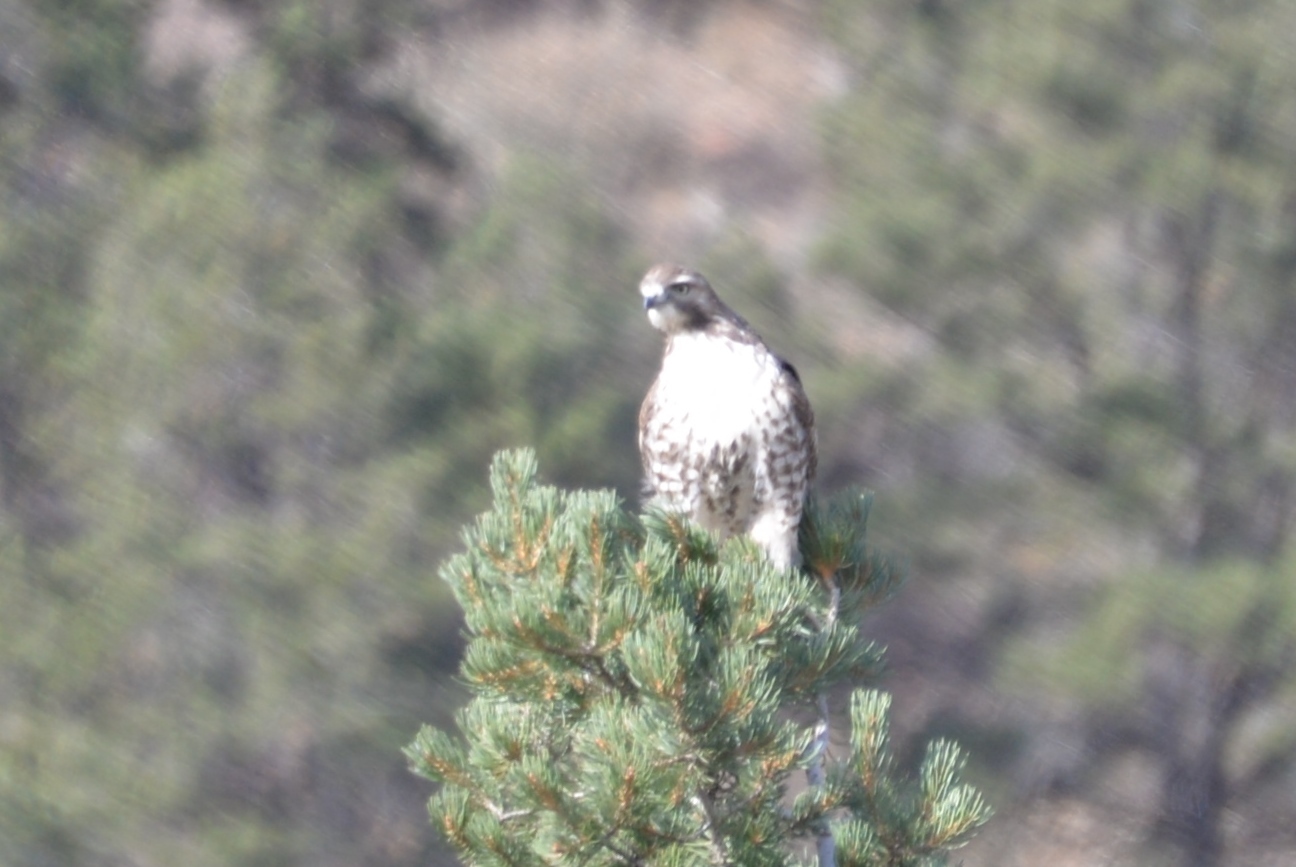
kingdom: Animalia
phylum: Chordata
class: Aves
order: Accipitriformes
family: Accipitridae
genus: Buteo
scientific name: Buteo jamaicensis
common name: Red-tailed hawk
